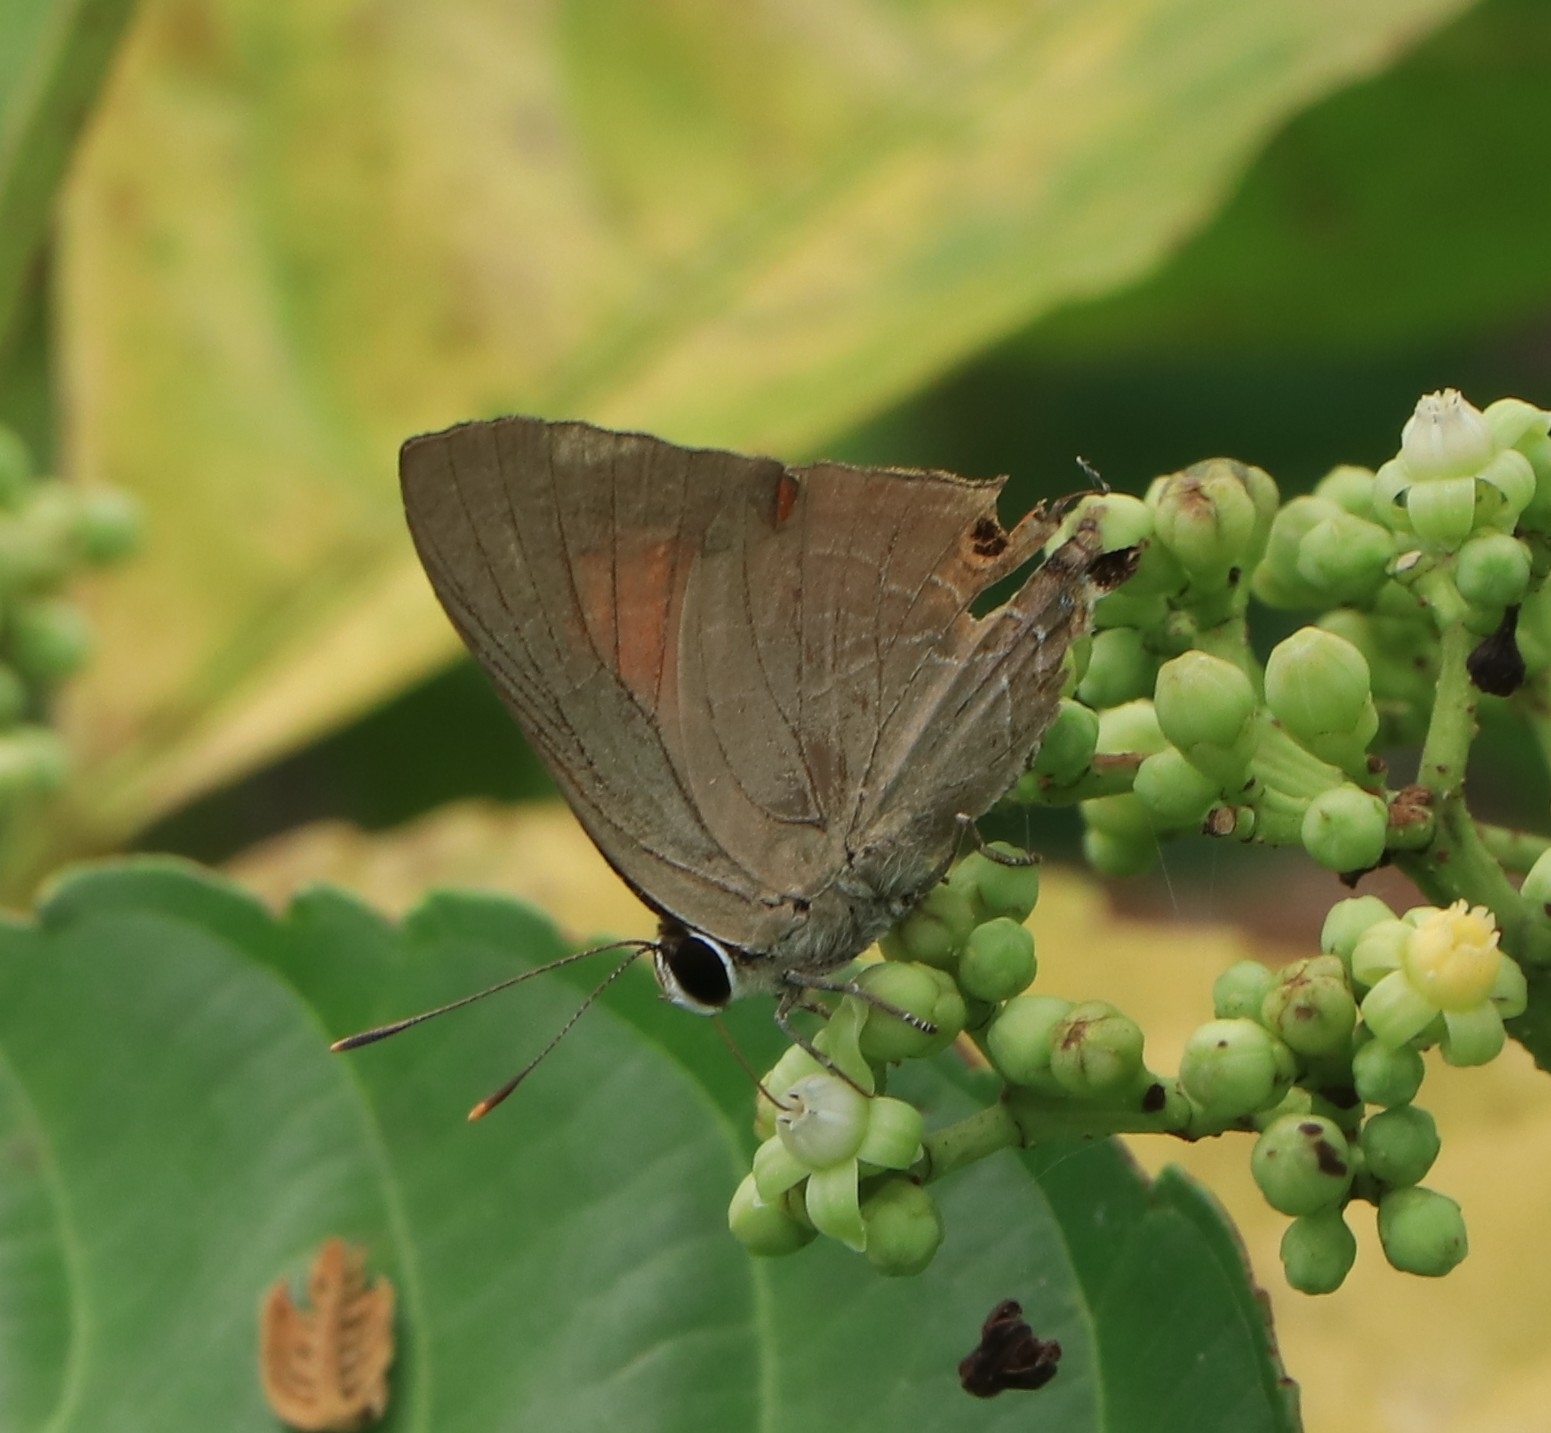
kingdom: Animalia
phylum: Arthropoda
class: Insecta
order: Lepidoptera
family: Lycaenidae
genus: Deudorix
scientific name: Deudorix epijarbas
